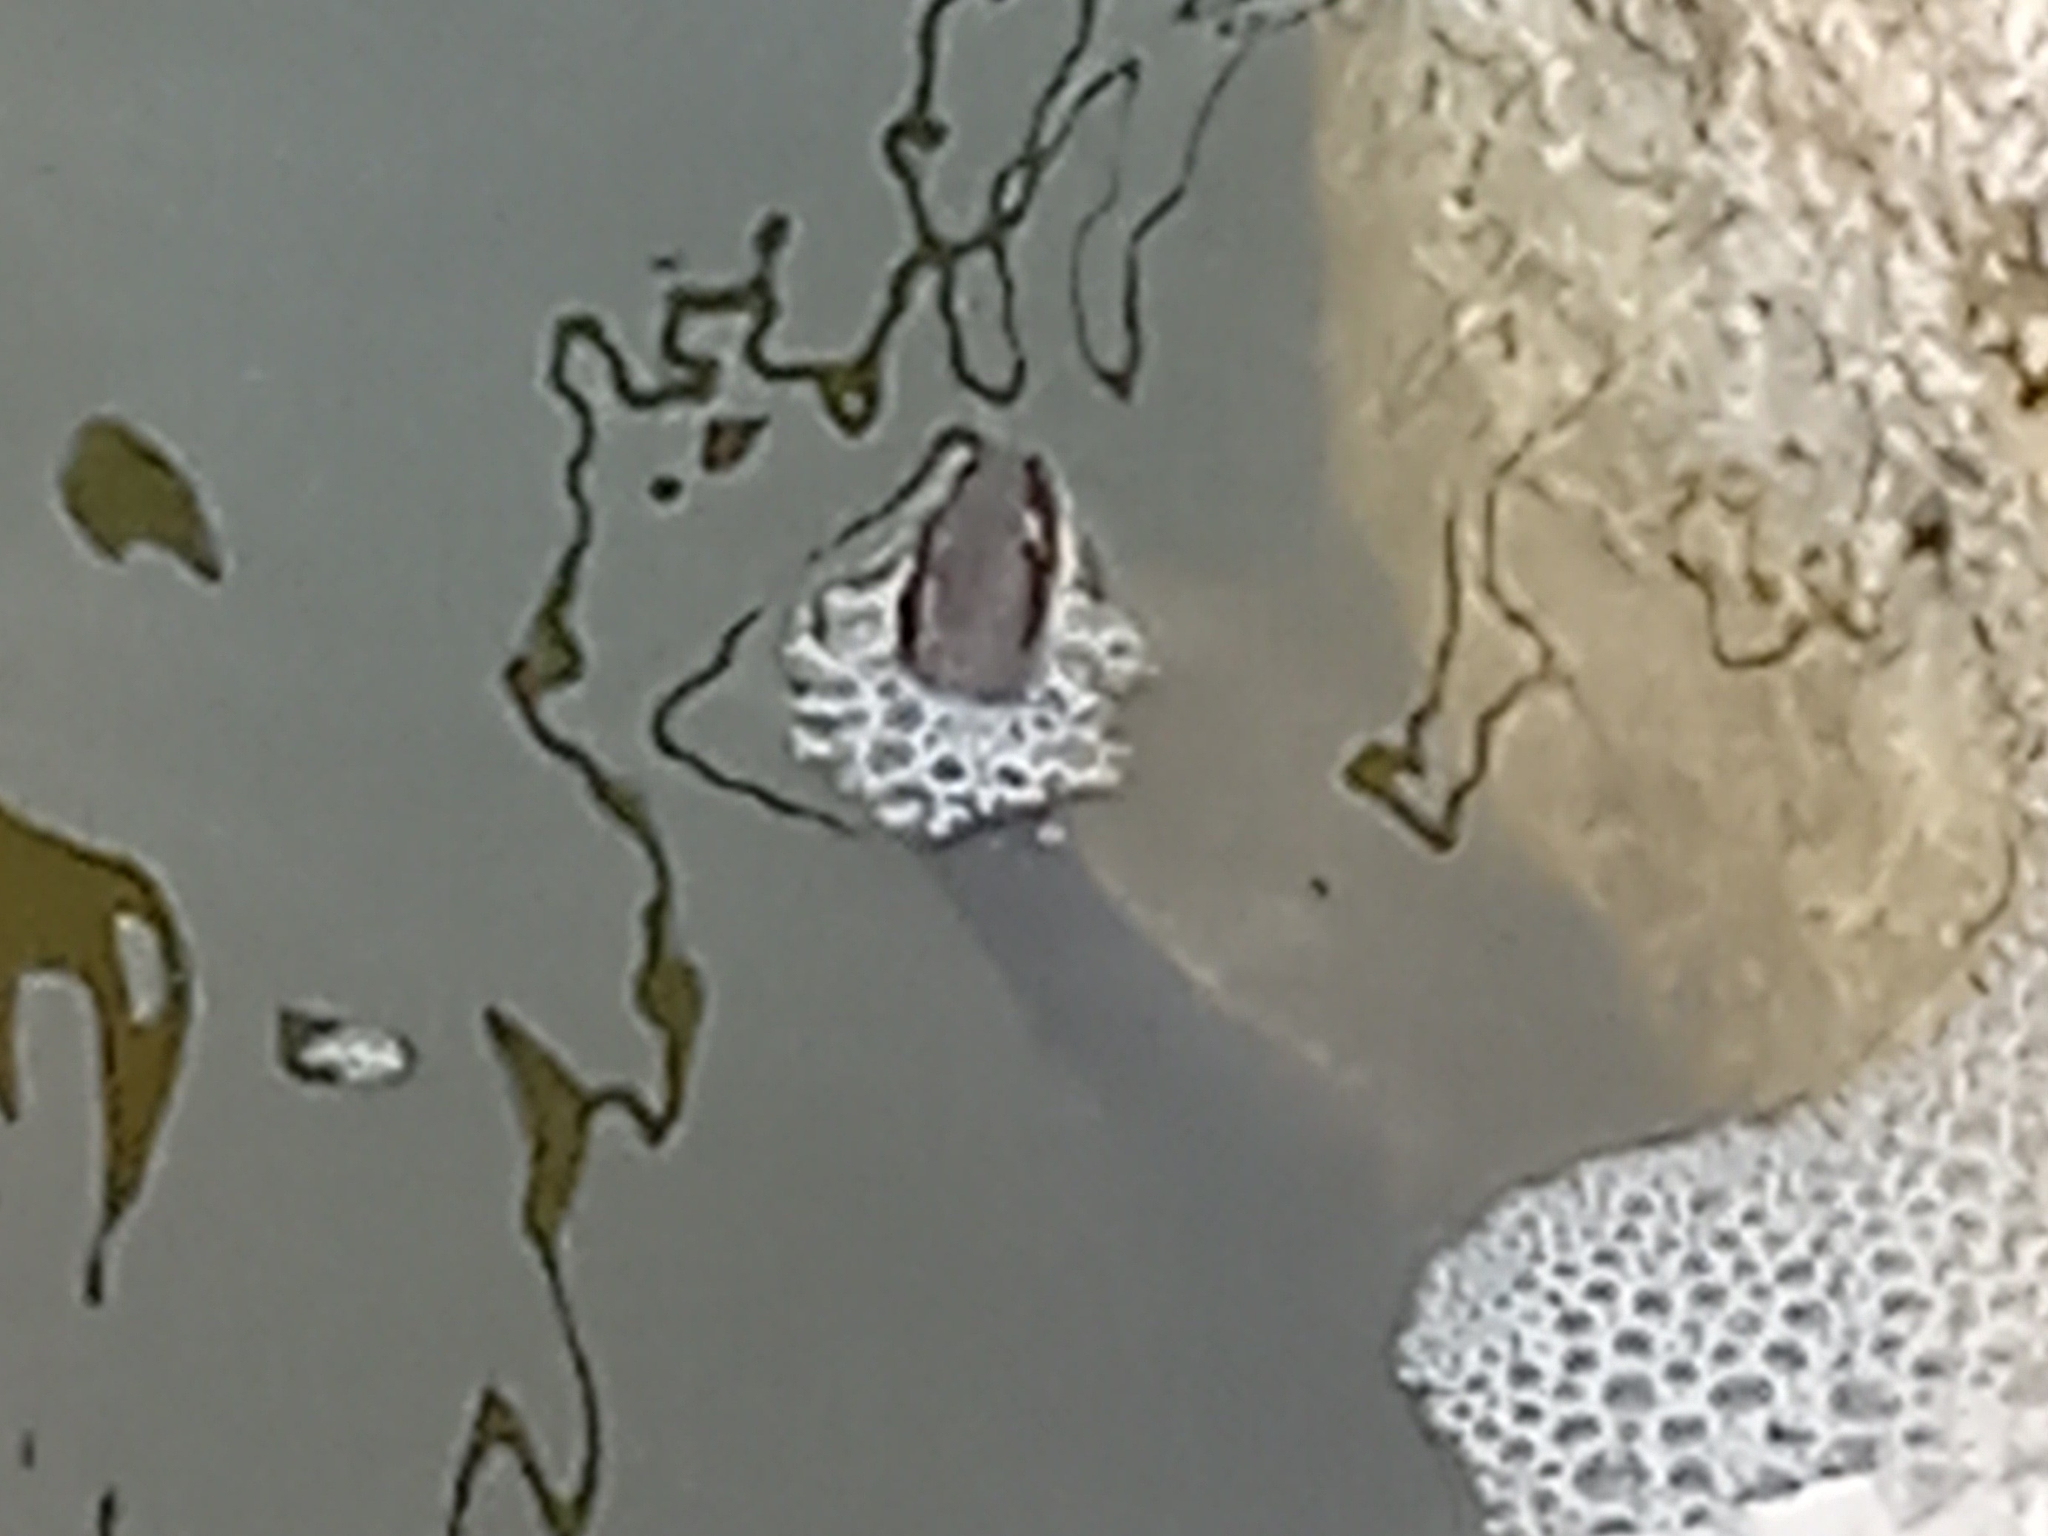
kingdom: Animalia
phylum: Chordata
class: Squamata
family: Colubridae
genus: Nerodia
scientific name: Nerodia sipedon
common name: Northern water snake
